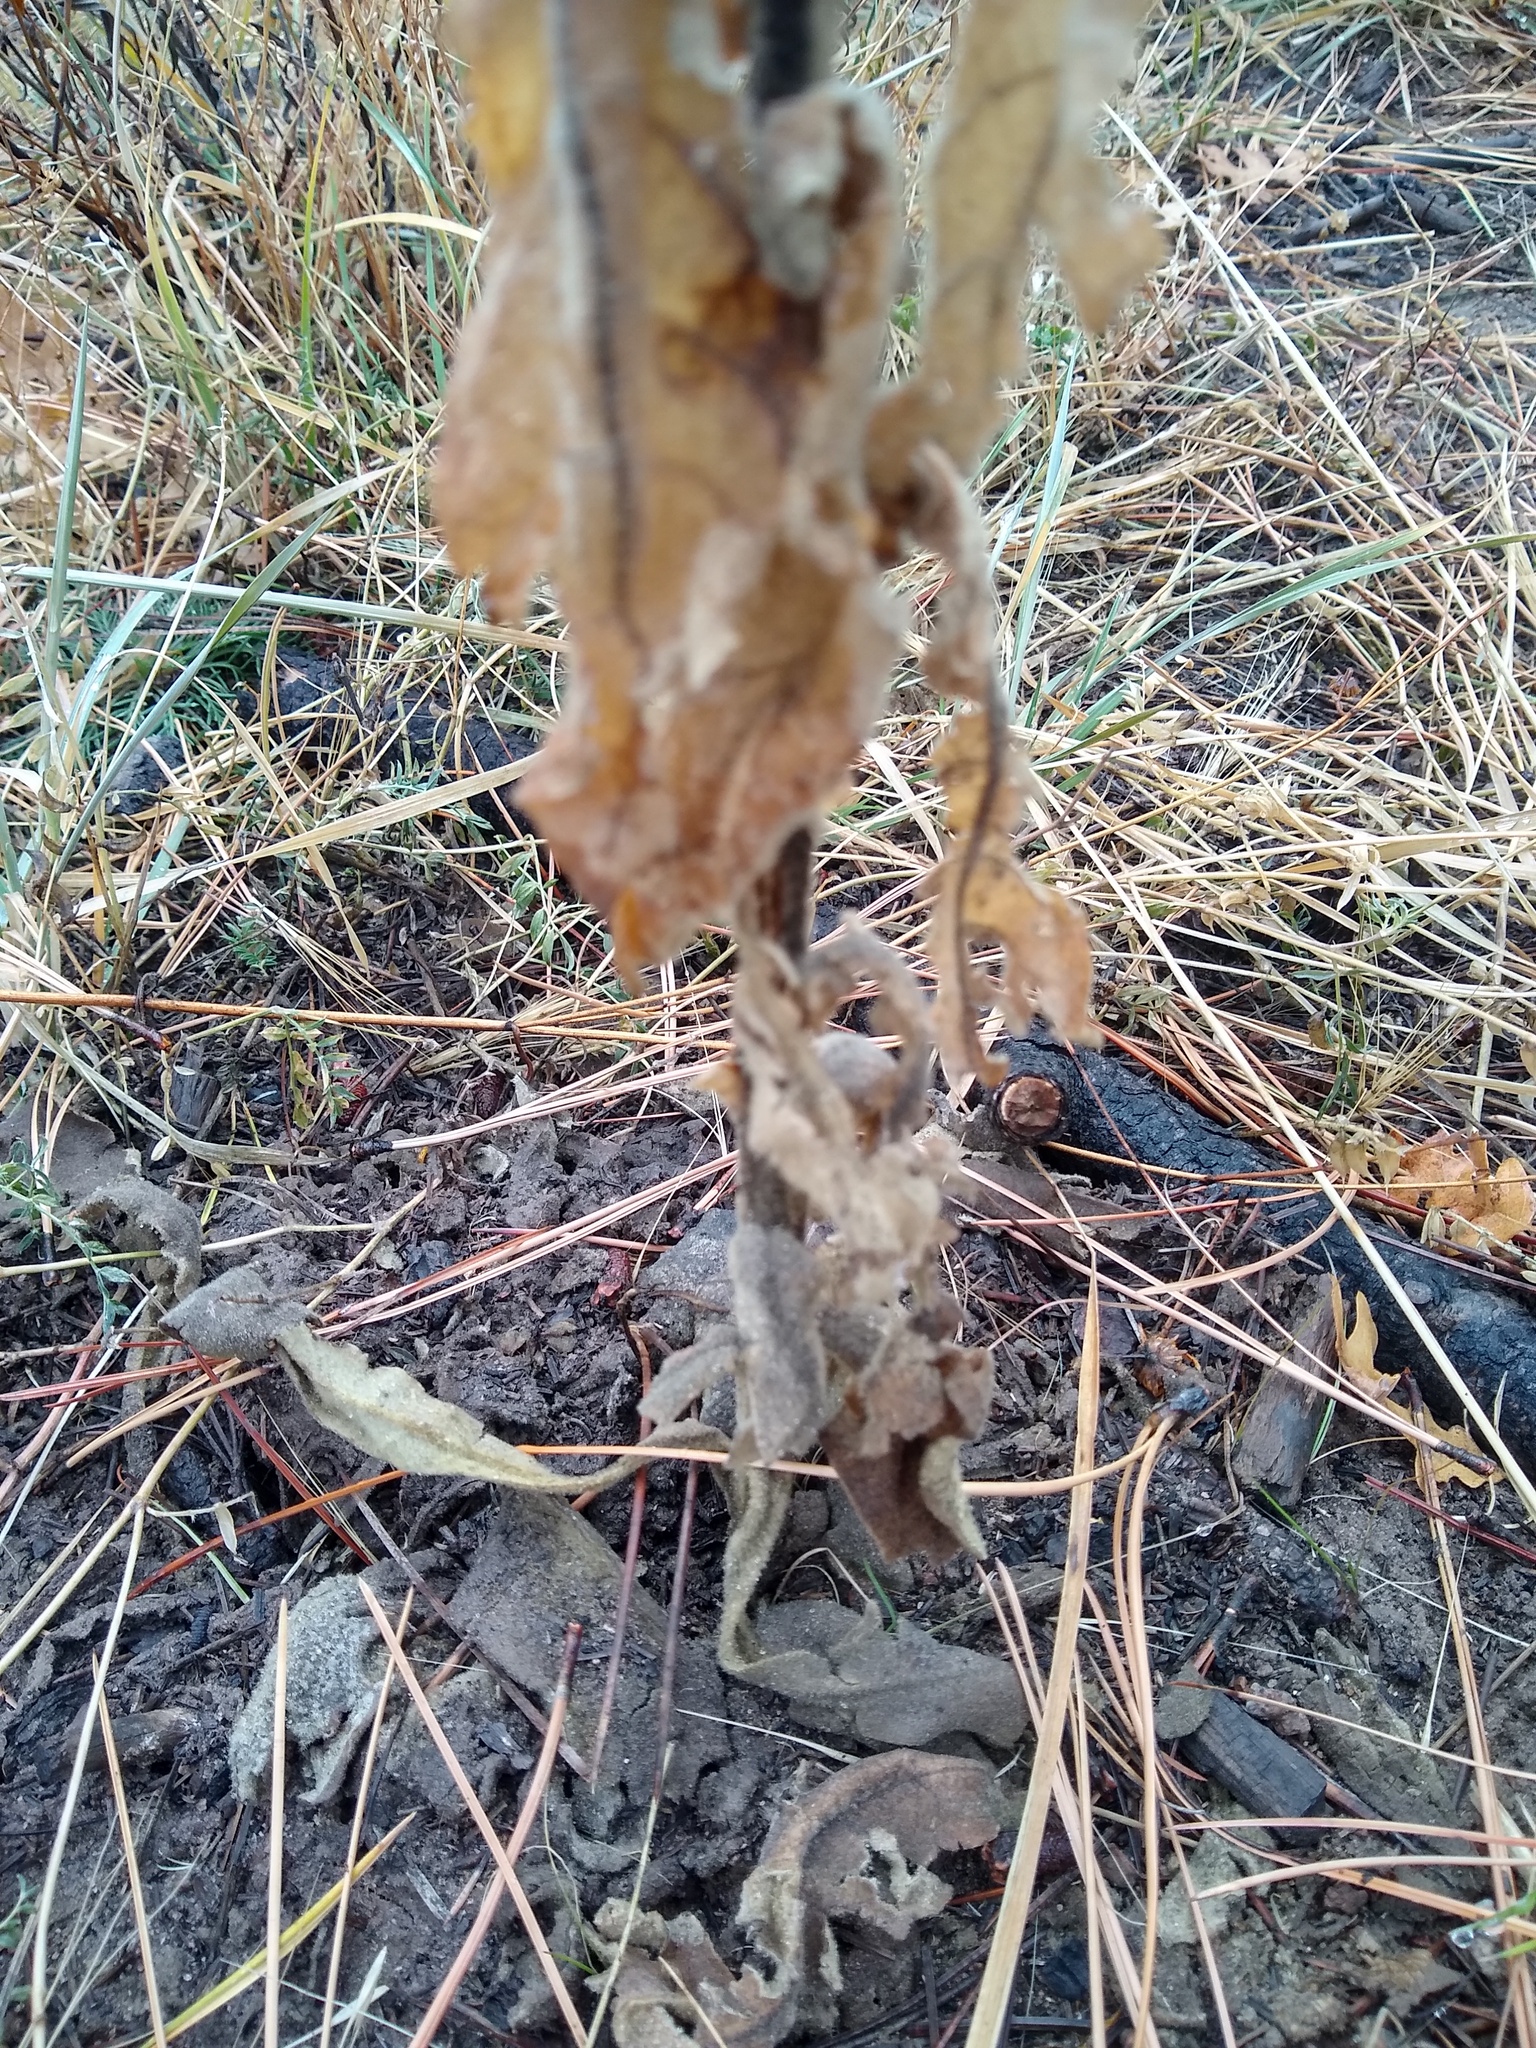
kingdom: Plantae
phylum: Tracheophyta
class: Magnoliopsida
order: Lamiales
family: Scrophulariaceae
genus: Verbascum
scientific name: Verbascum thapsus
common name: Common mullein
